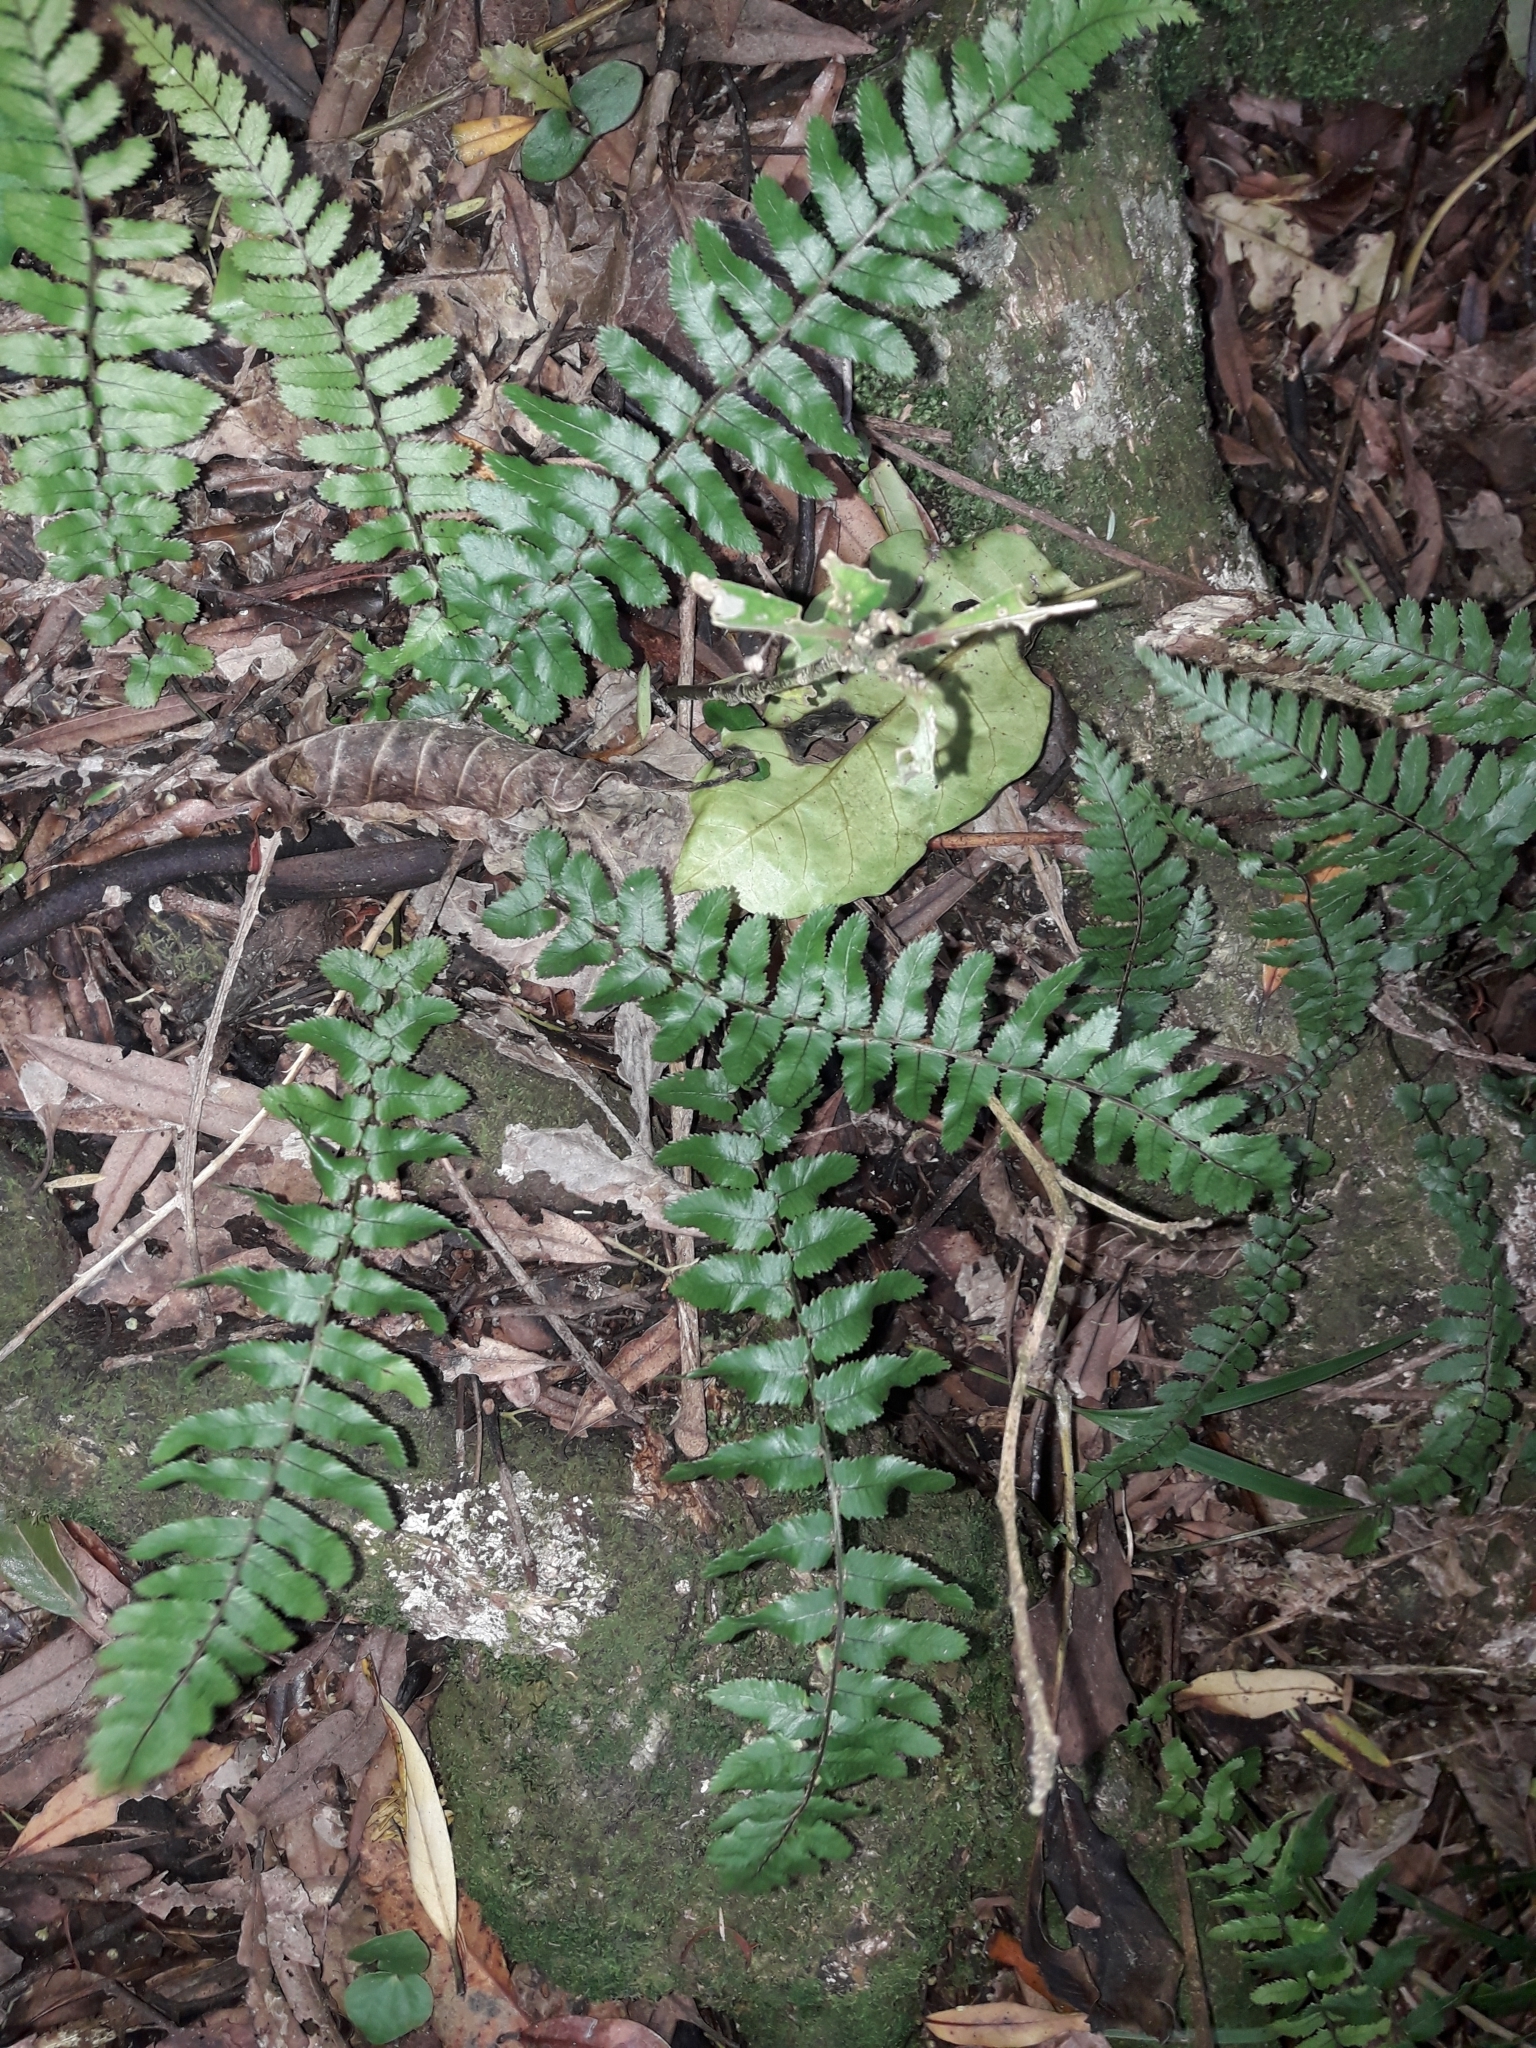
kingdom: Plantae
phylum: Tracheophyta
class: Polypodiopsida
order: Polypodiales
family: Blechnaceae
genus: Icarus
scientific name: Icarus filiformis
